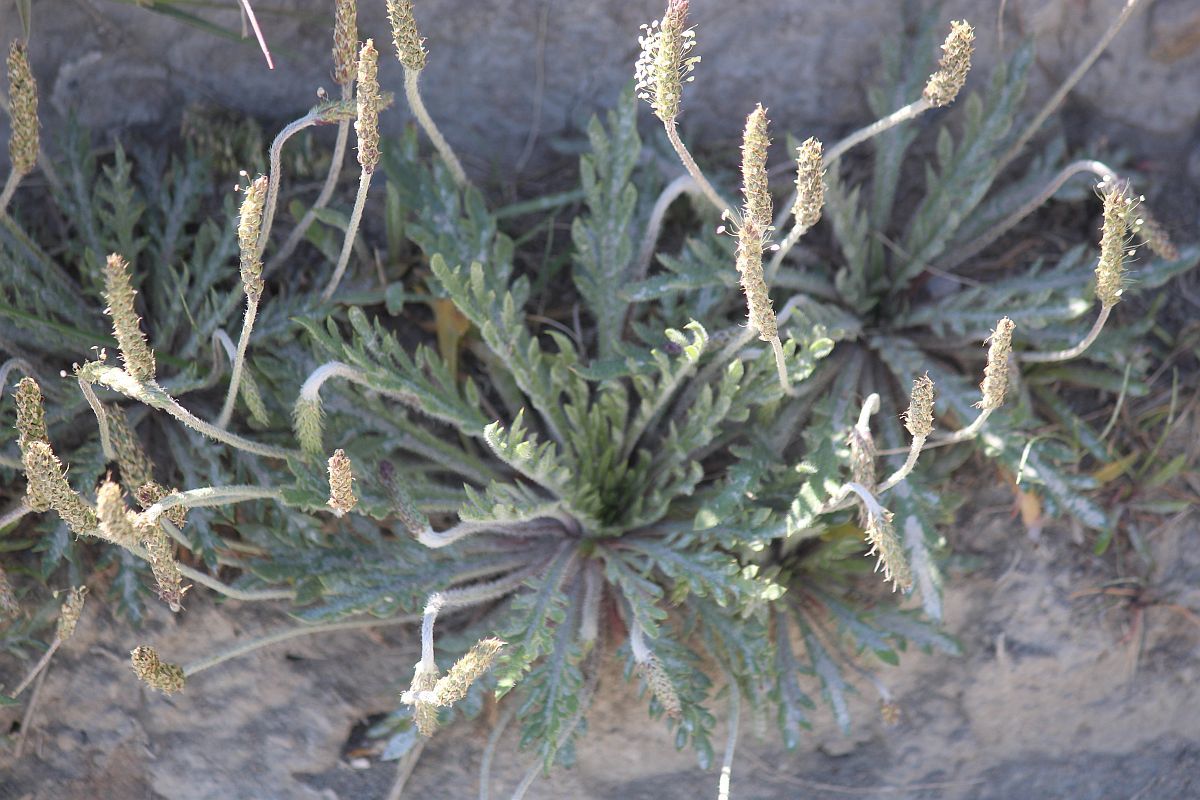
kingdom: Plantae
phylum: Tracheophyta
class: Magnoliopsida
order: Lamiales
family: Plantaginaceae
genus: Plantago
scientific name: Plantago coronopus
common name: Buck's-horn plantain
